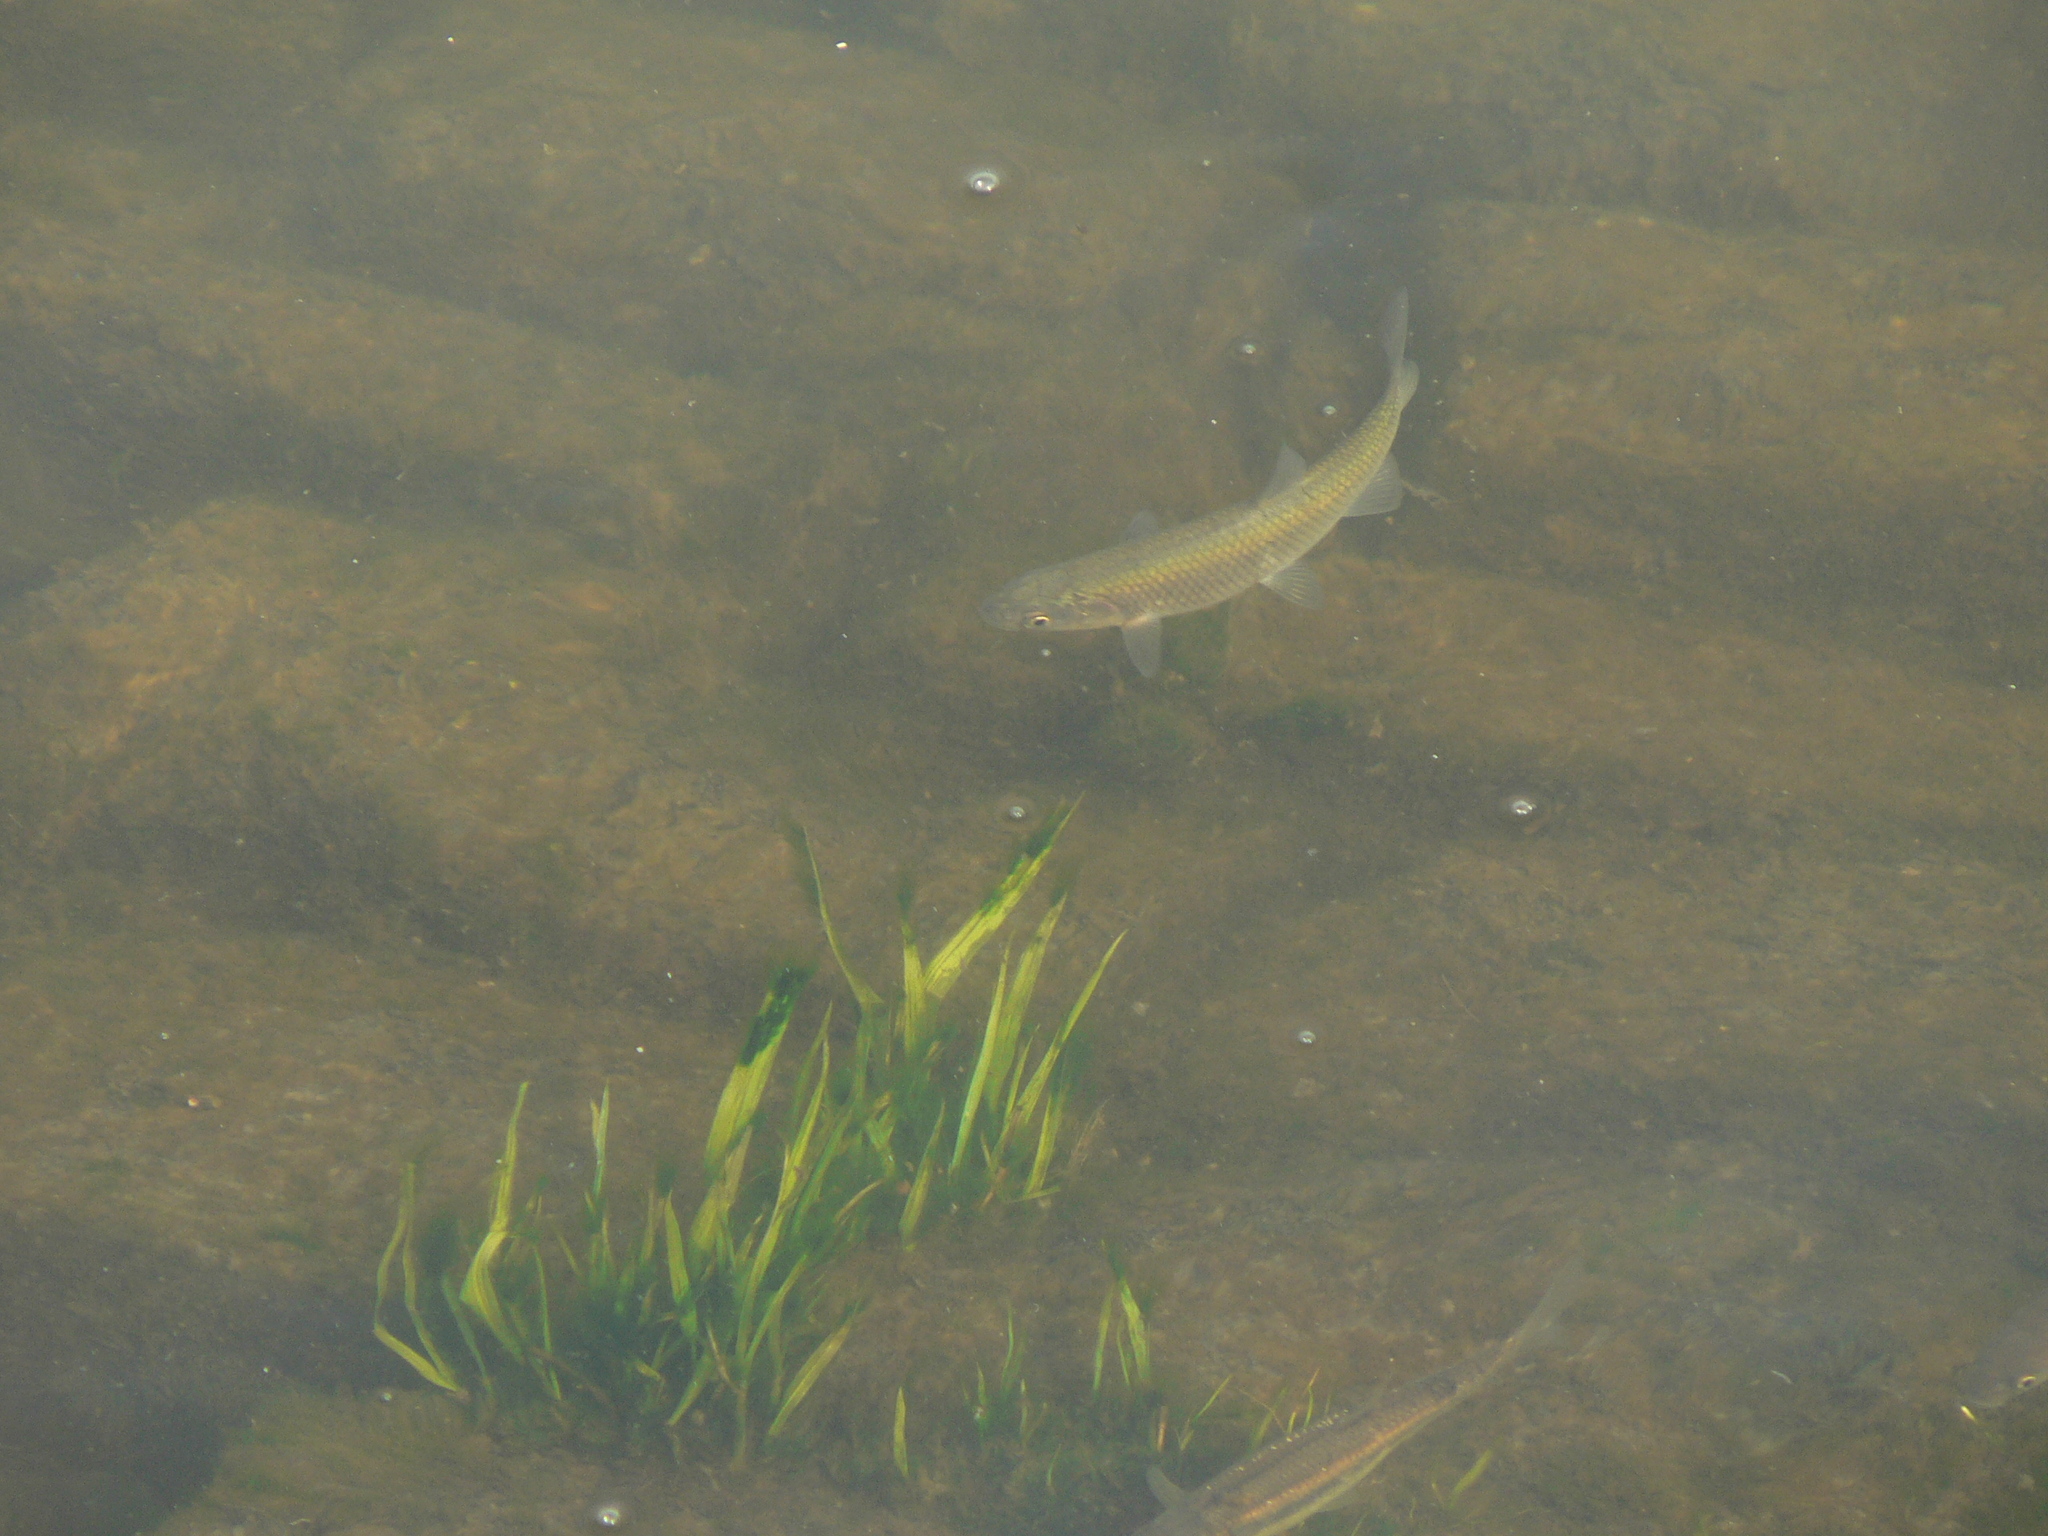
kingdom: Animalia
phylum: Chordata
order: Cypriniformes
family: Cyprinidae
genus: Squalius
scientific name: Squalius squalus
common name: Italian chub
